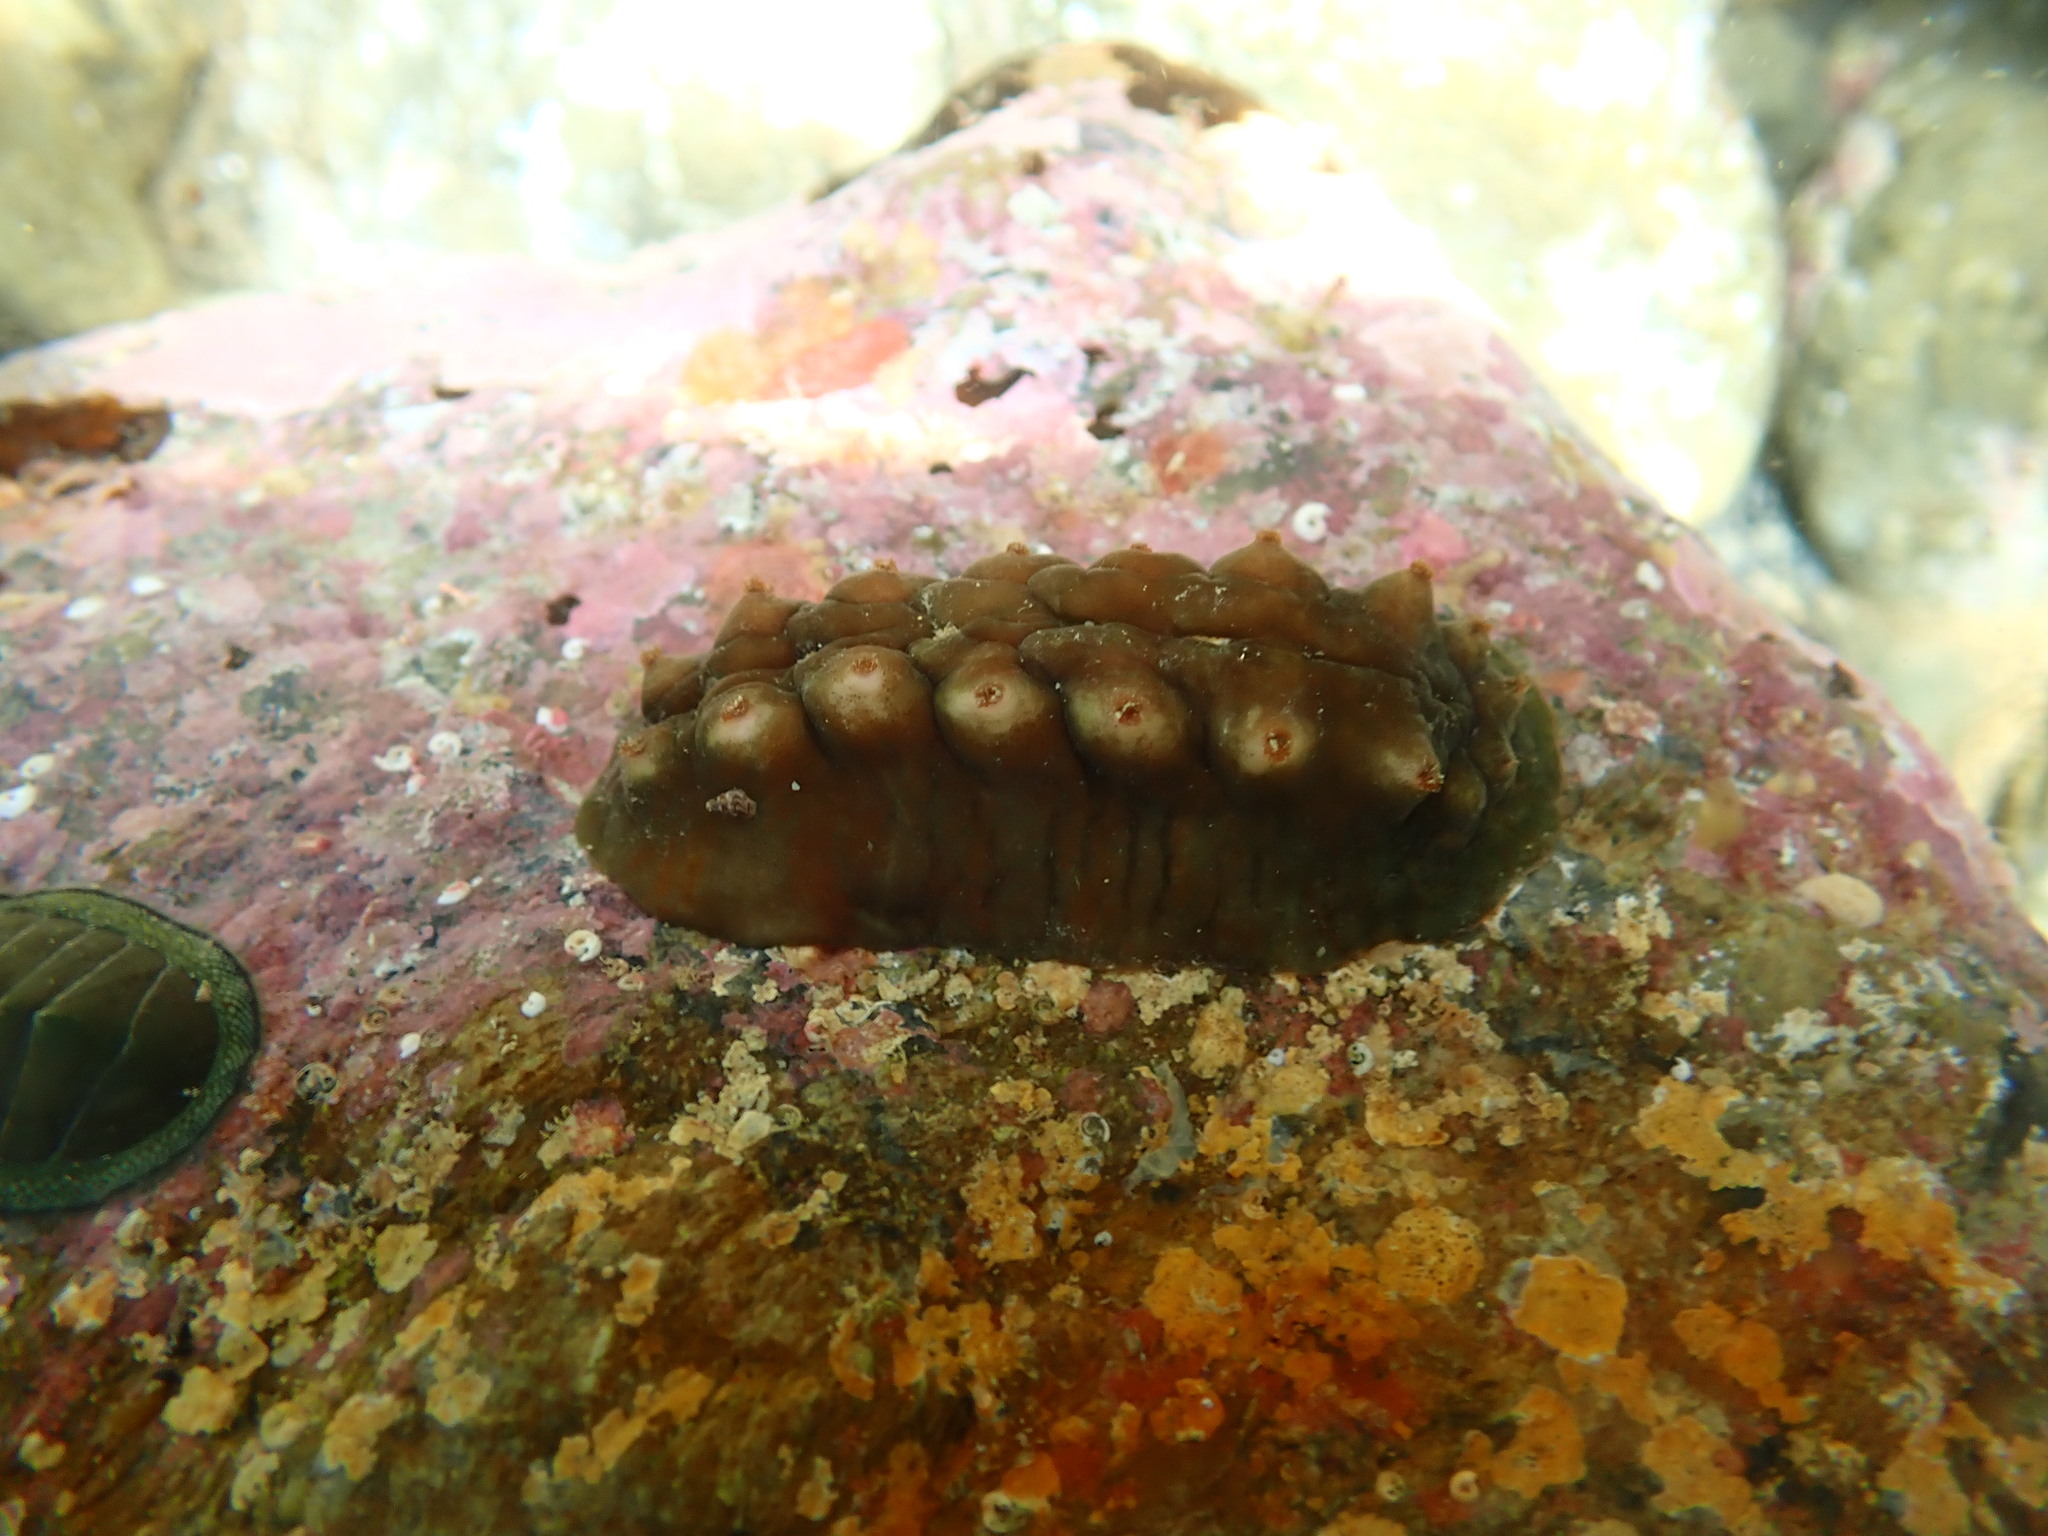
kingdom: Animalia
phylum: Mollusca
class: Polyplacophora
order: Chitonida
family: Acanthochitonidae
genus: Cryptoconchus
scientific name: Cryptoconchus porosus
